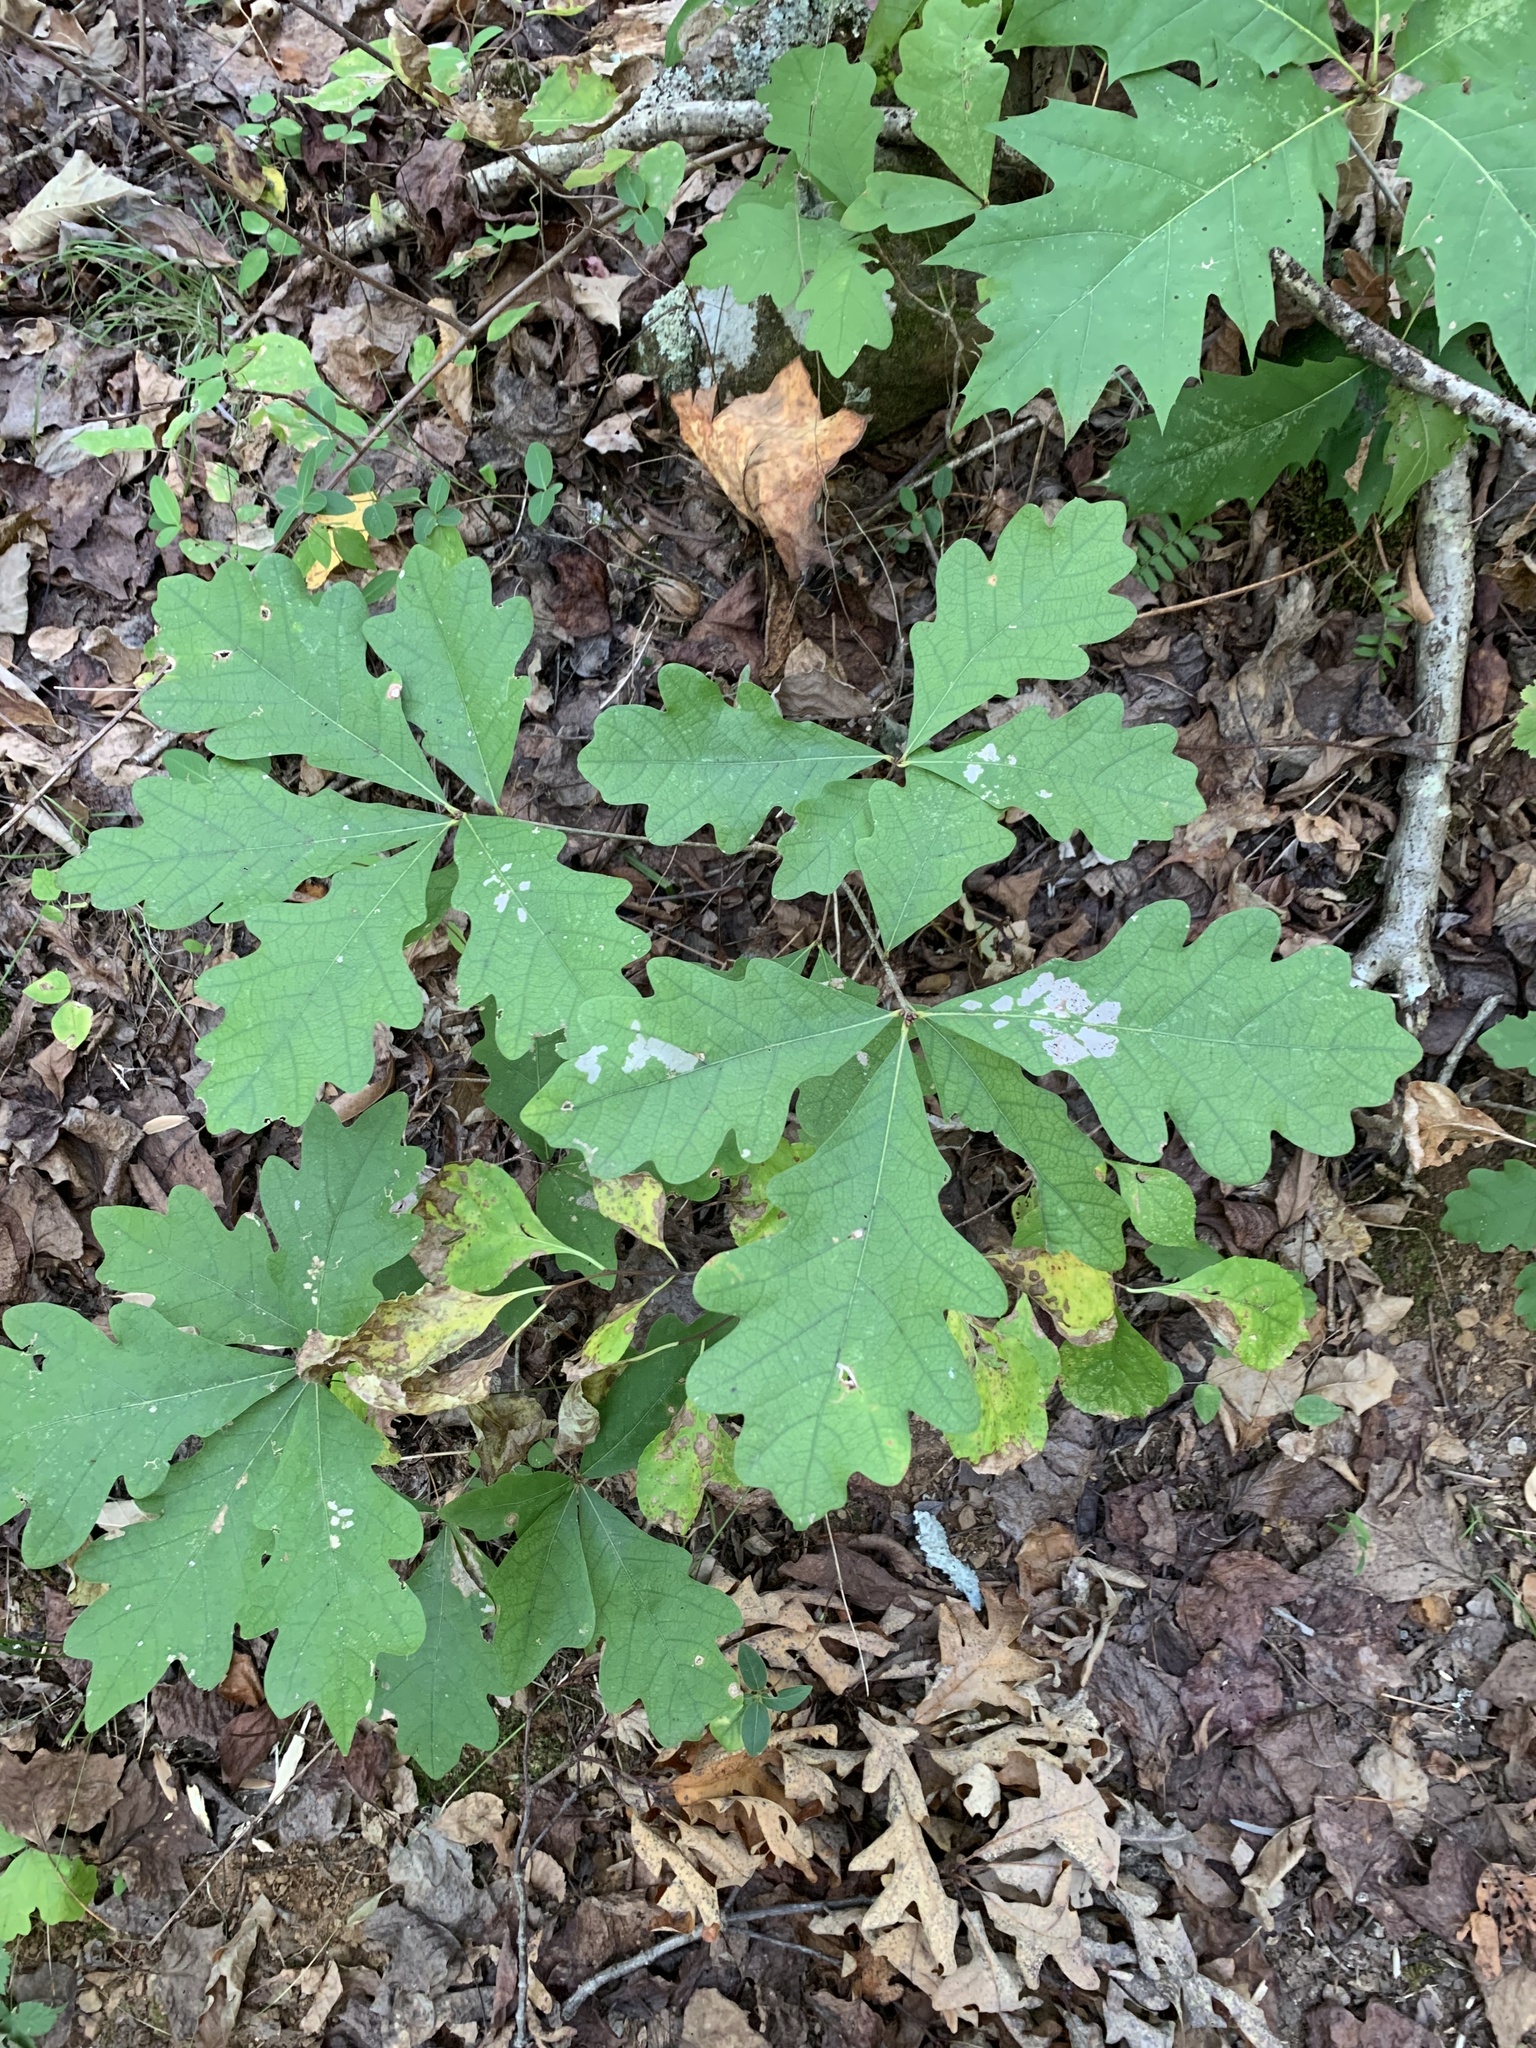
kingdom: Plantae
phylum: Tracheophyta
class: Magnoliopsida
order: Fagales
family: Fagaceae
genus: Quercus
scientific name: Quercus alba
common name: White oak
